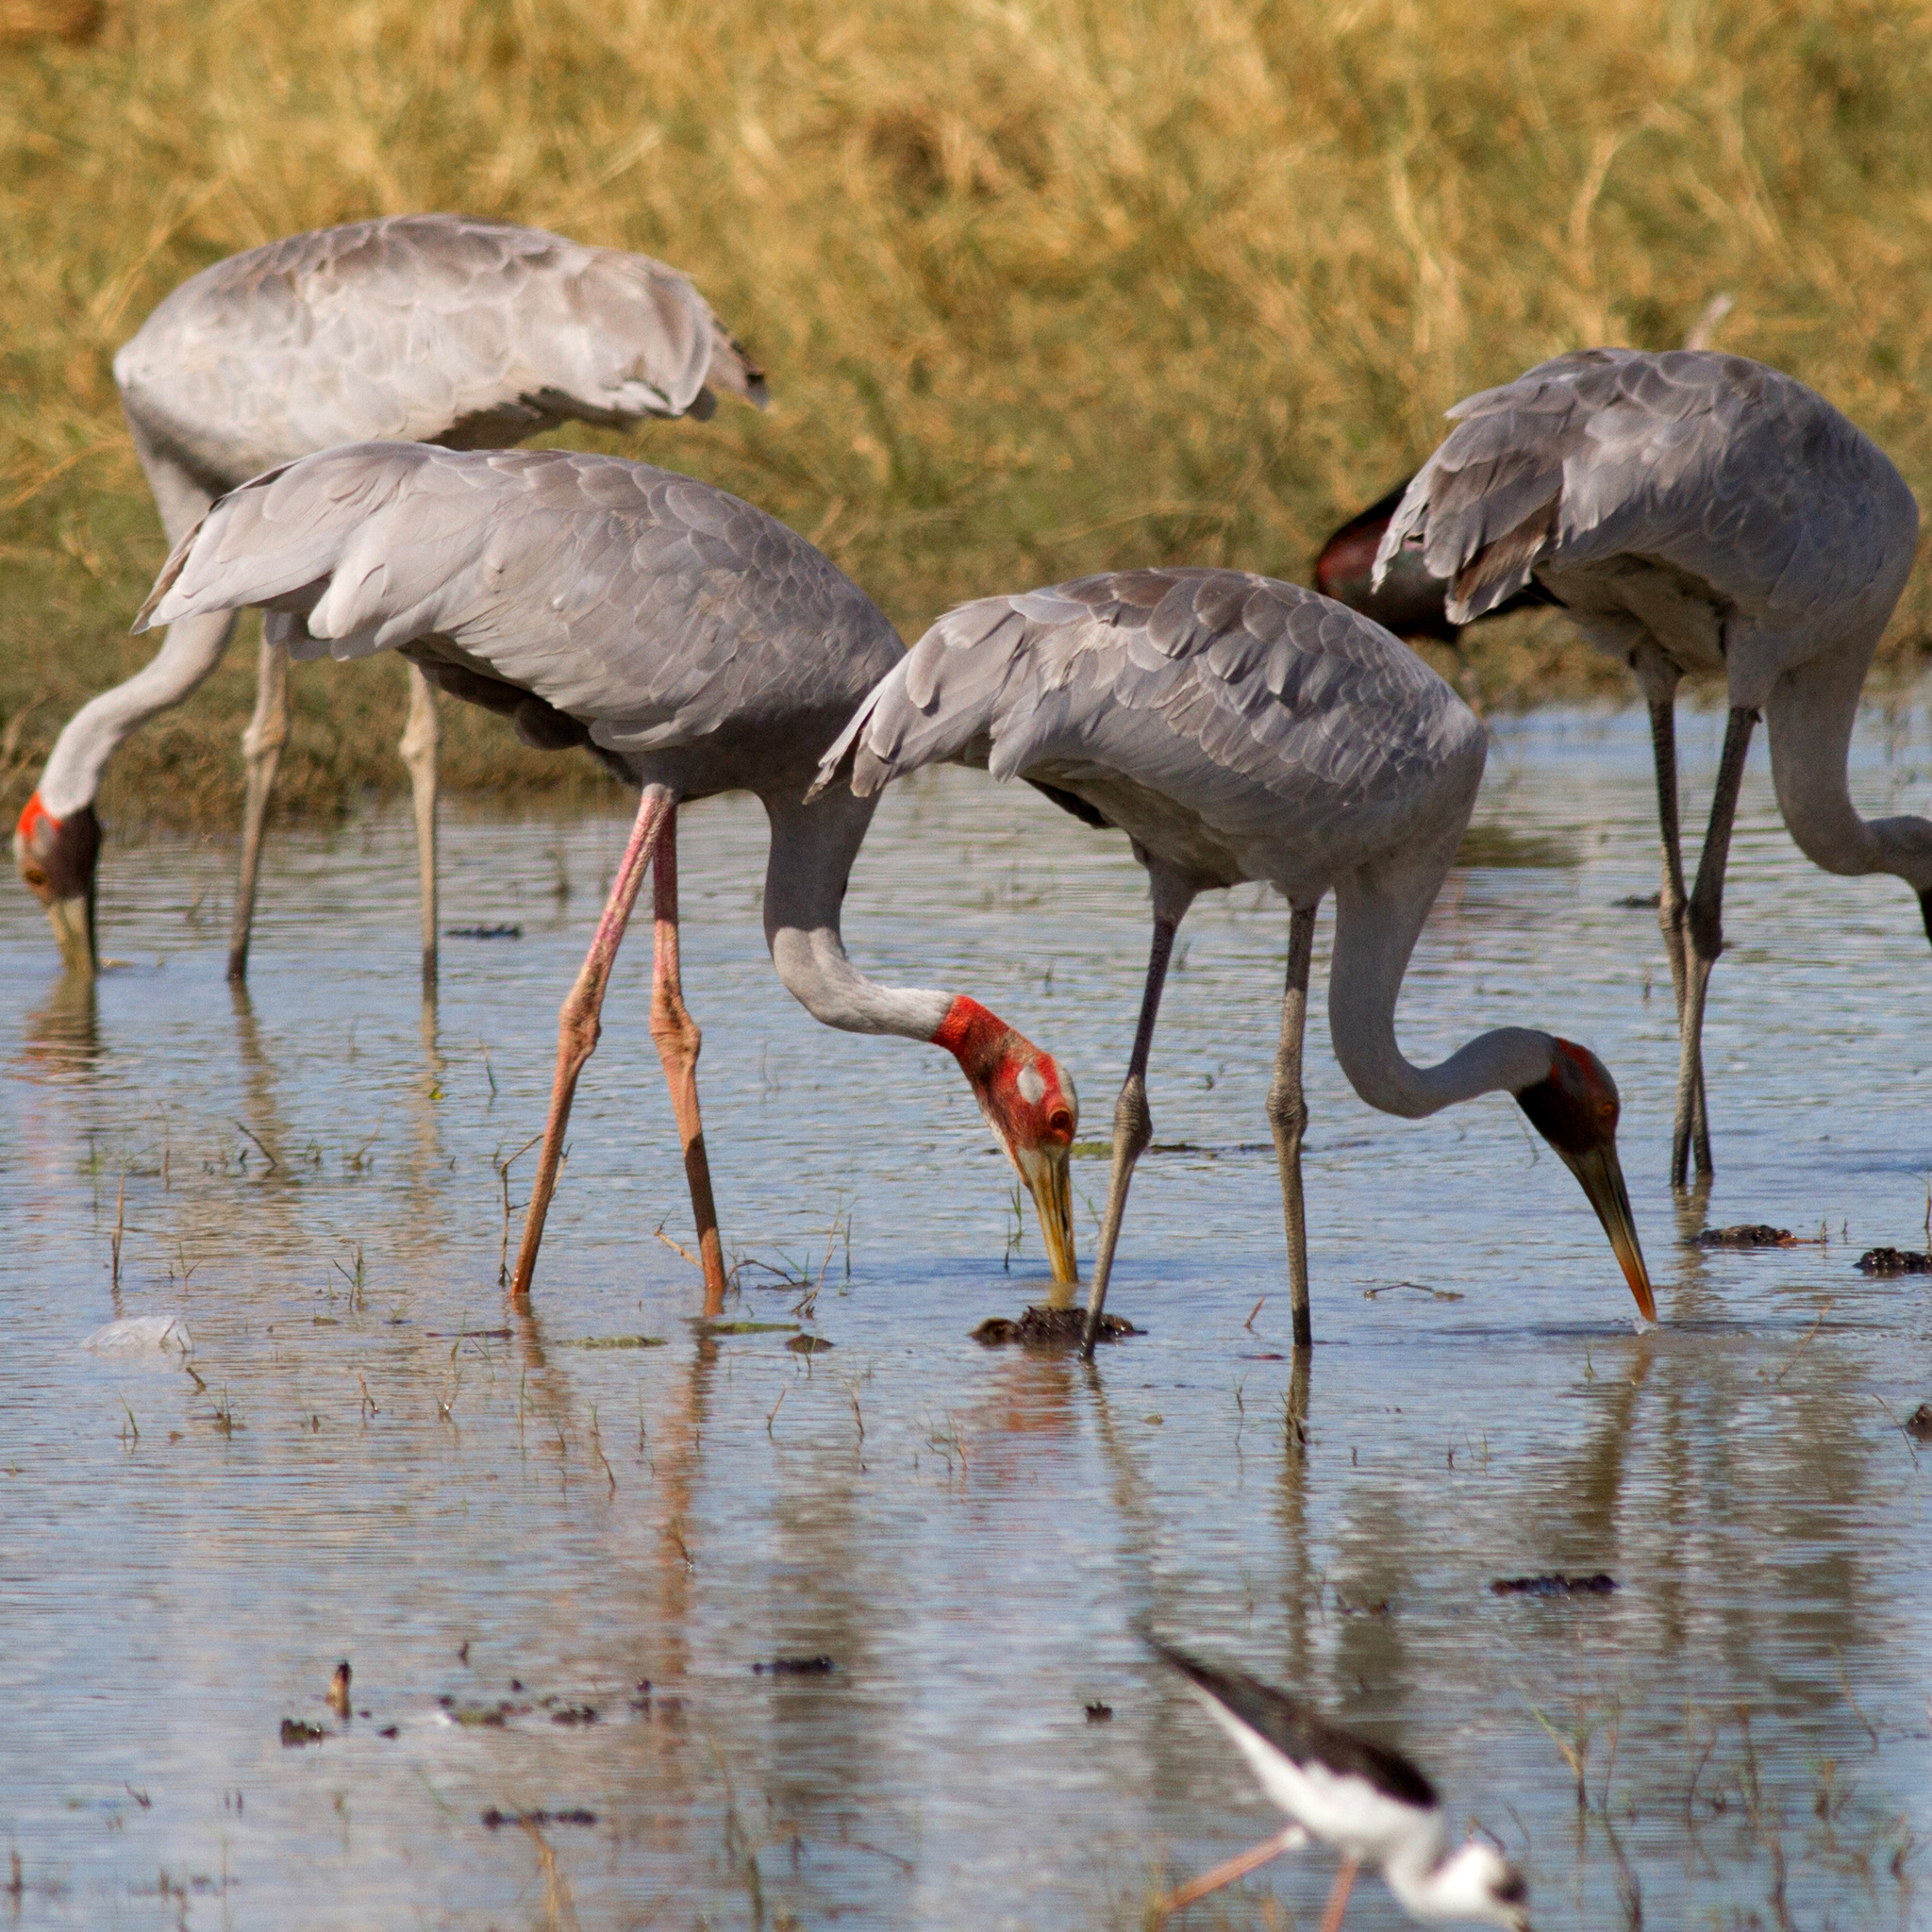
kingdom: Animalia
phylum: Chordata
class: Aves
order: Gruiformes
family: Gruidae
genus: Grus
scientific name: Grus antigone
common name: Sarus crane
